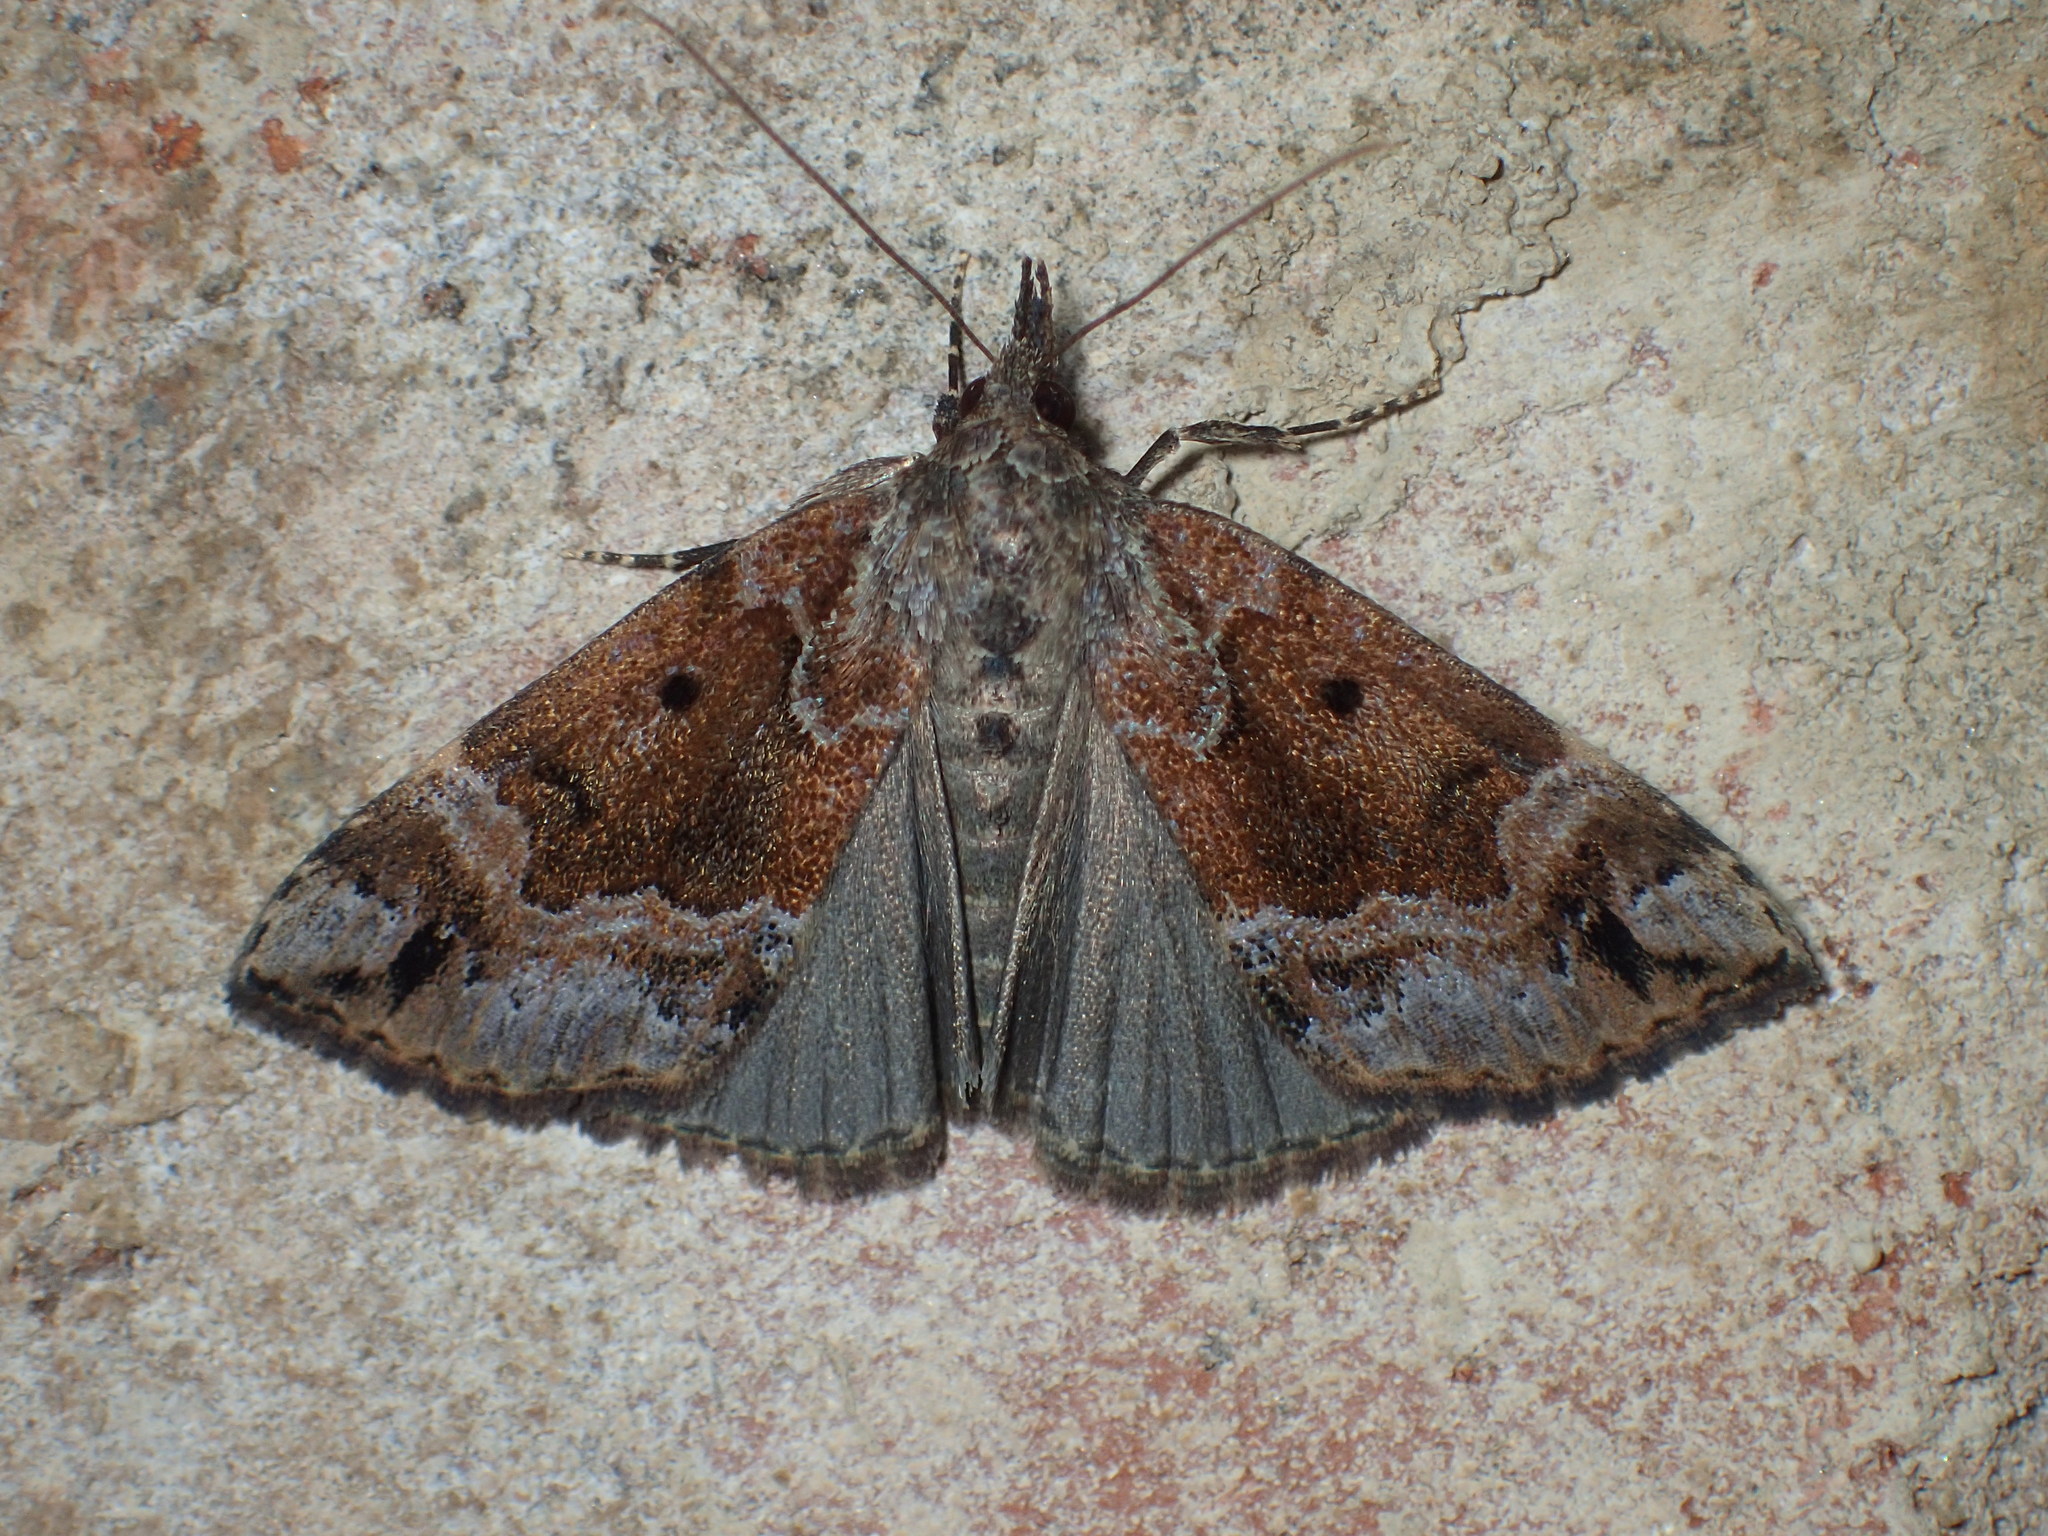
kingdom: Animalia
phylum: Arthropoda
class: Insecta
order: Lepidoptera
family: Erebidae
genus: Hypena
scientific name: Hypena palparia
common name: Mottled bomolocha moth
